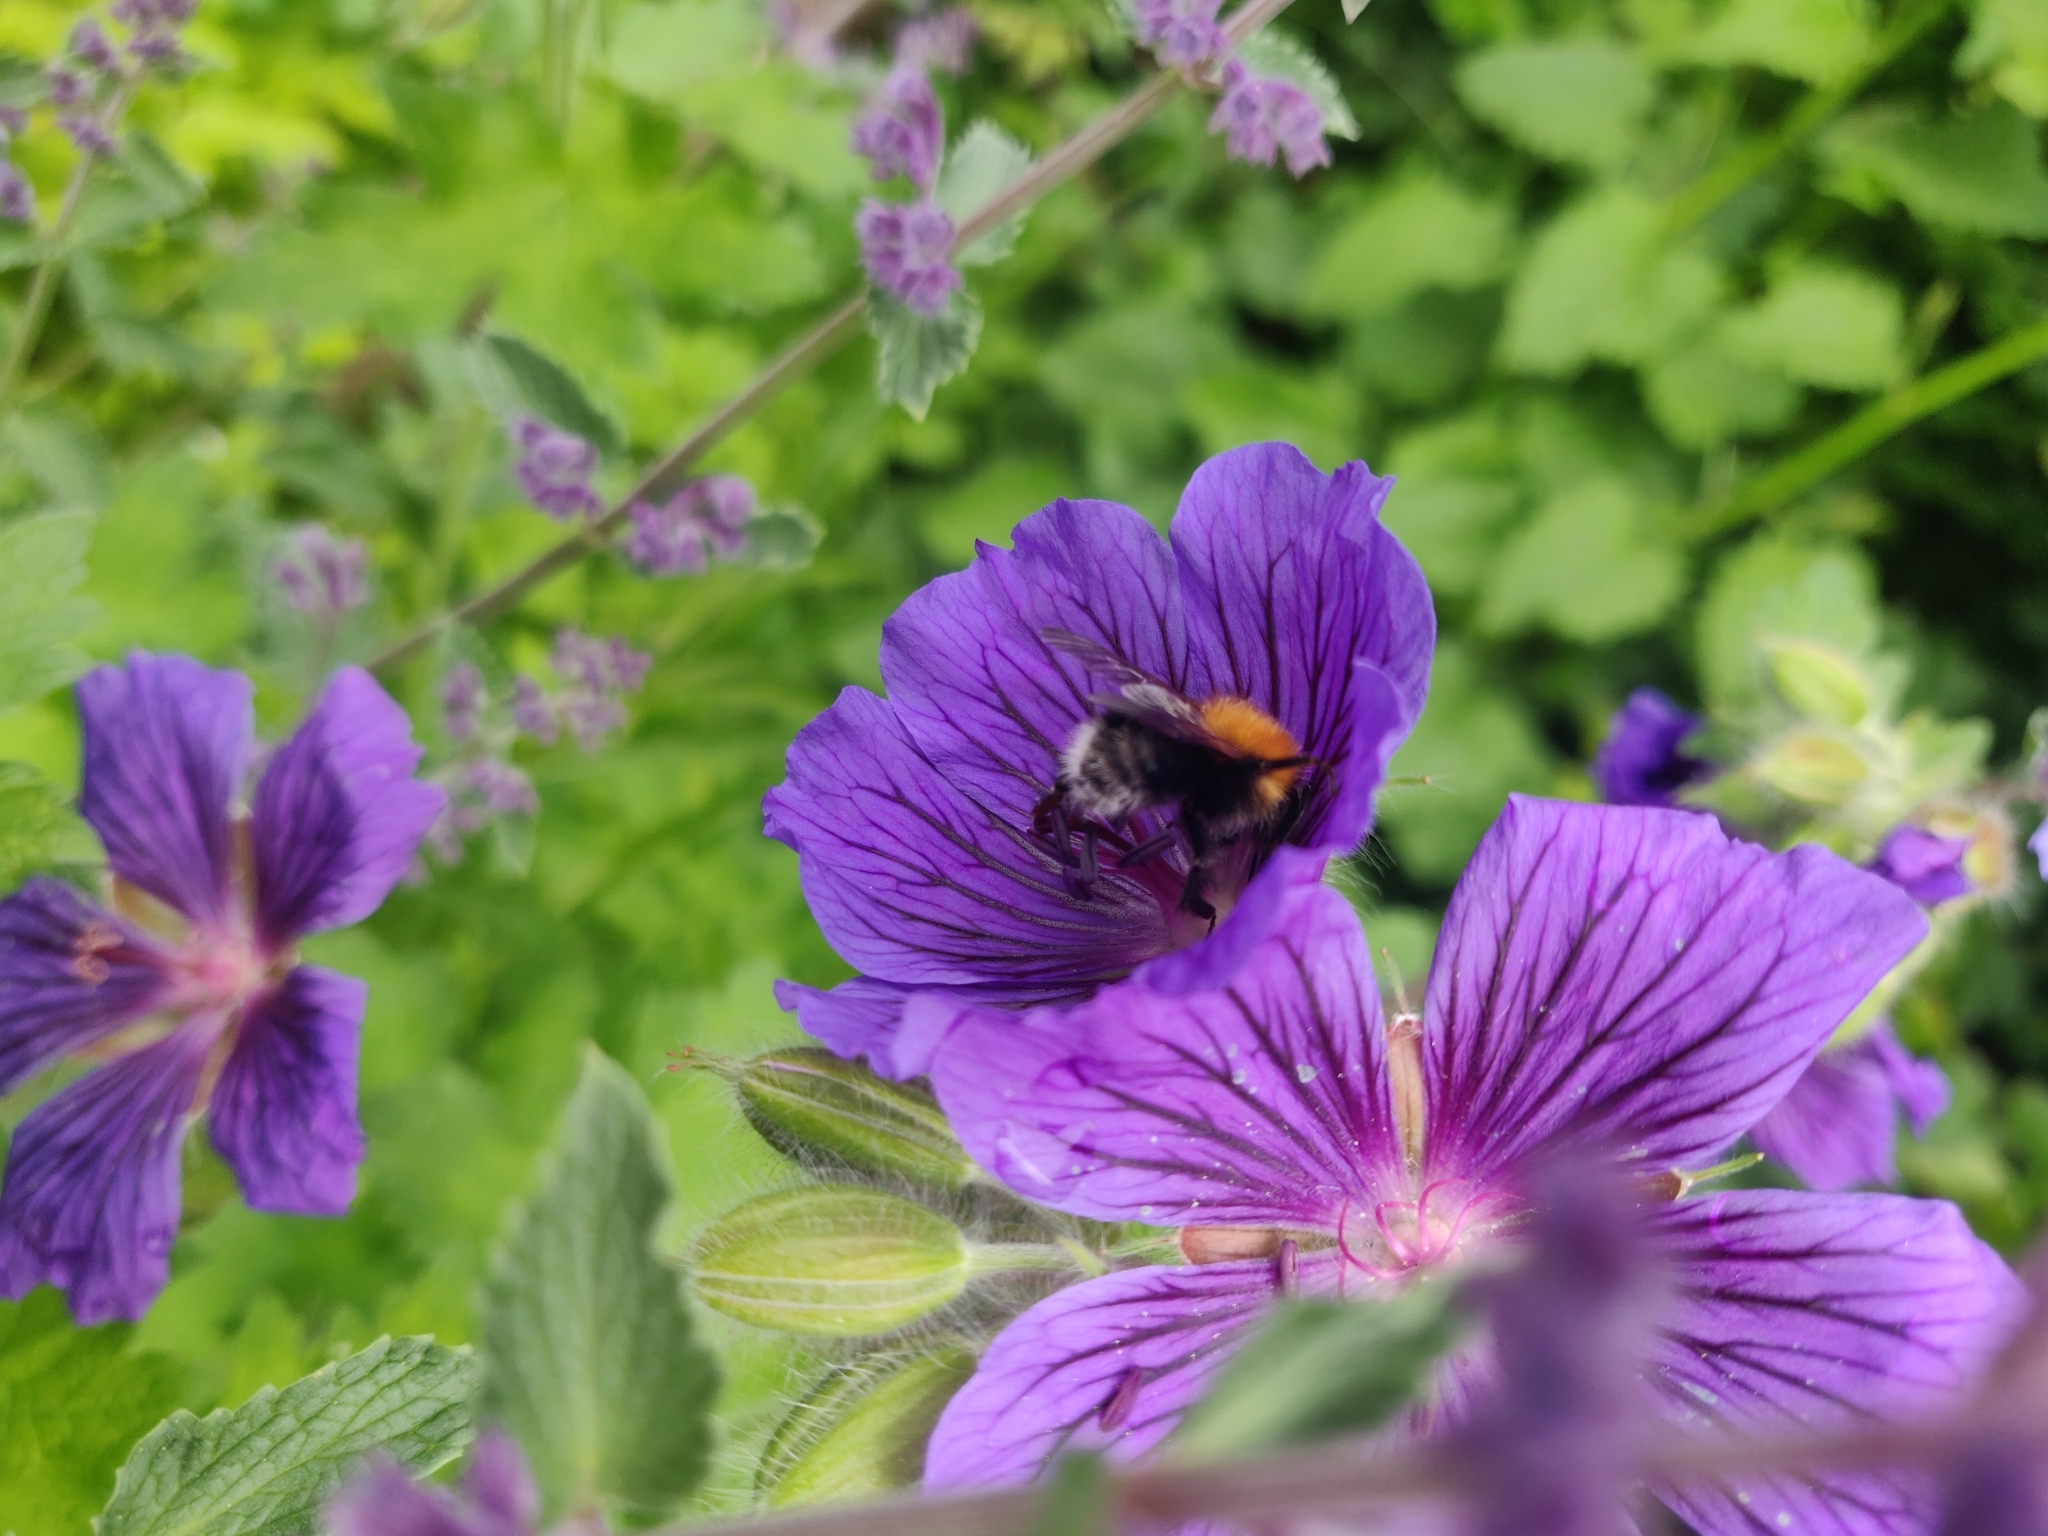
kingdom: Animalia
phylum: Arthropoda
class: Insecta
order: Hymenoptera
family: Apidae
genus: Bombus
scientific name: Bombus hypnorum
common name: New garden bumblebee
